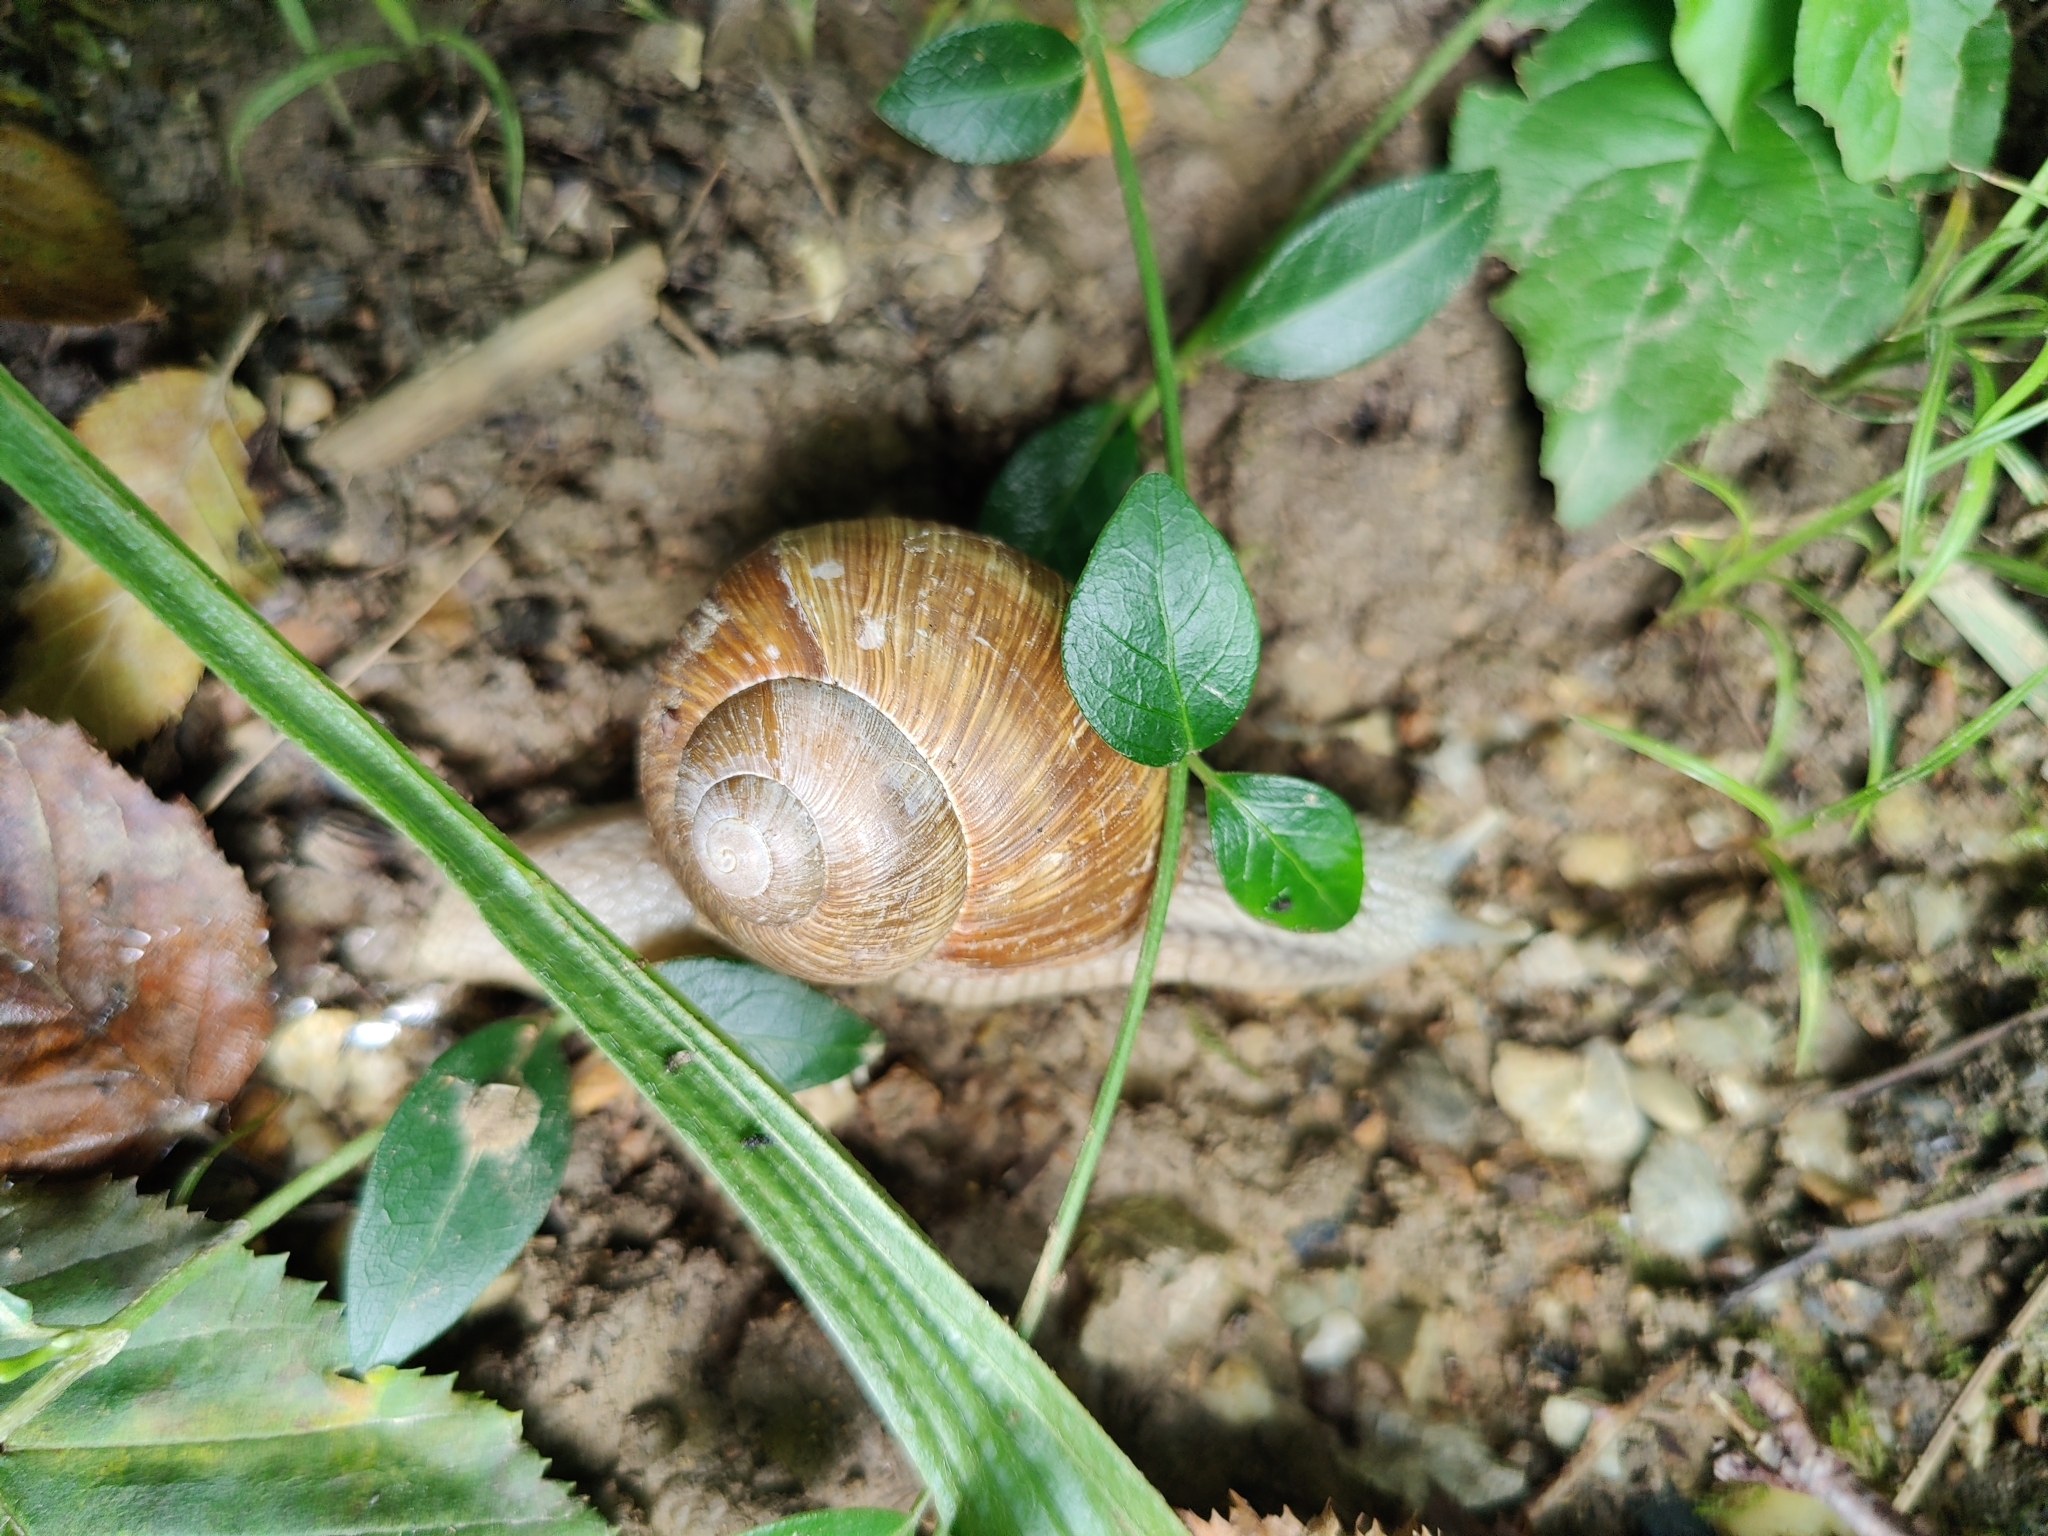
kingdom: Animalia
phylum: Mollusca
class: Gastropoda
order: Stylommatophora
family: Helicidae
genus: Helix
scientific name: Helix pomatia
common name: Roman snail
